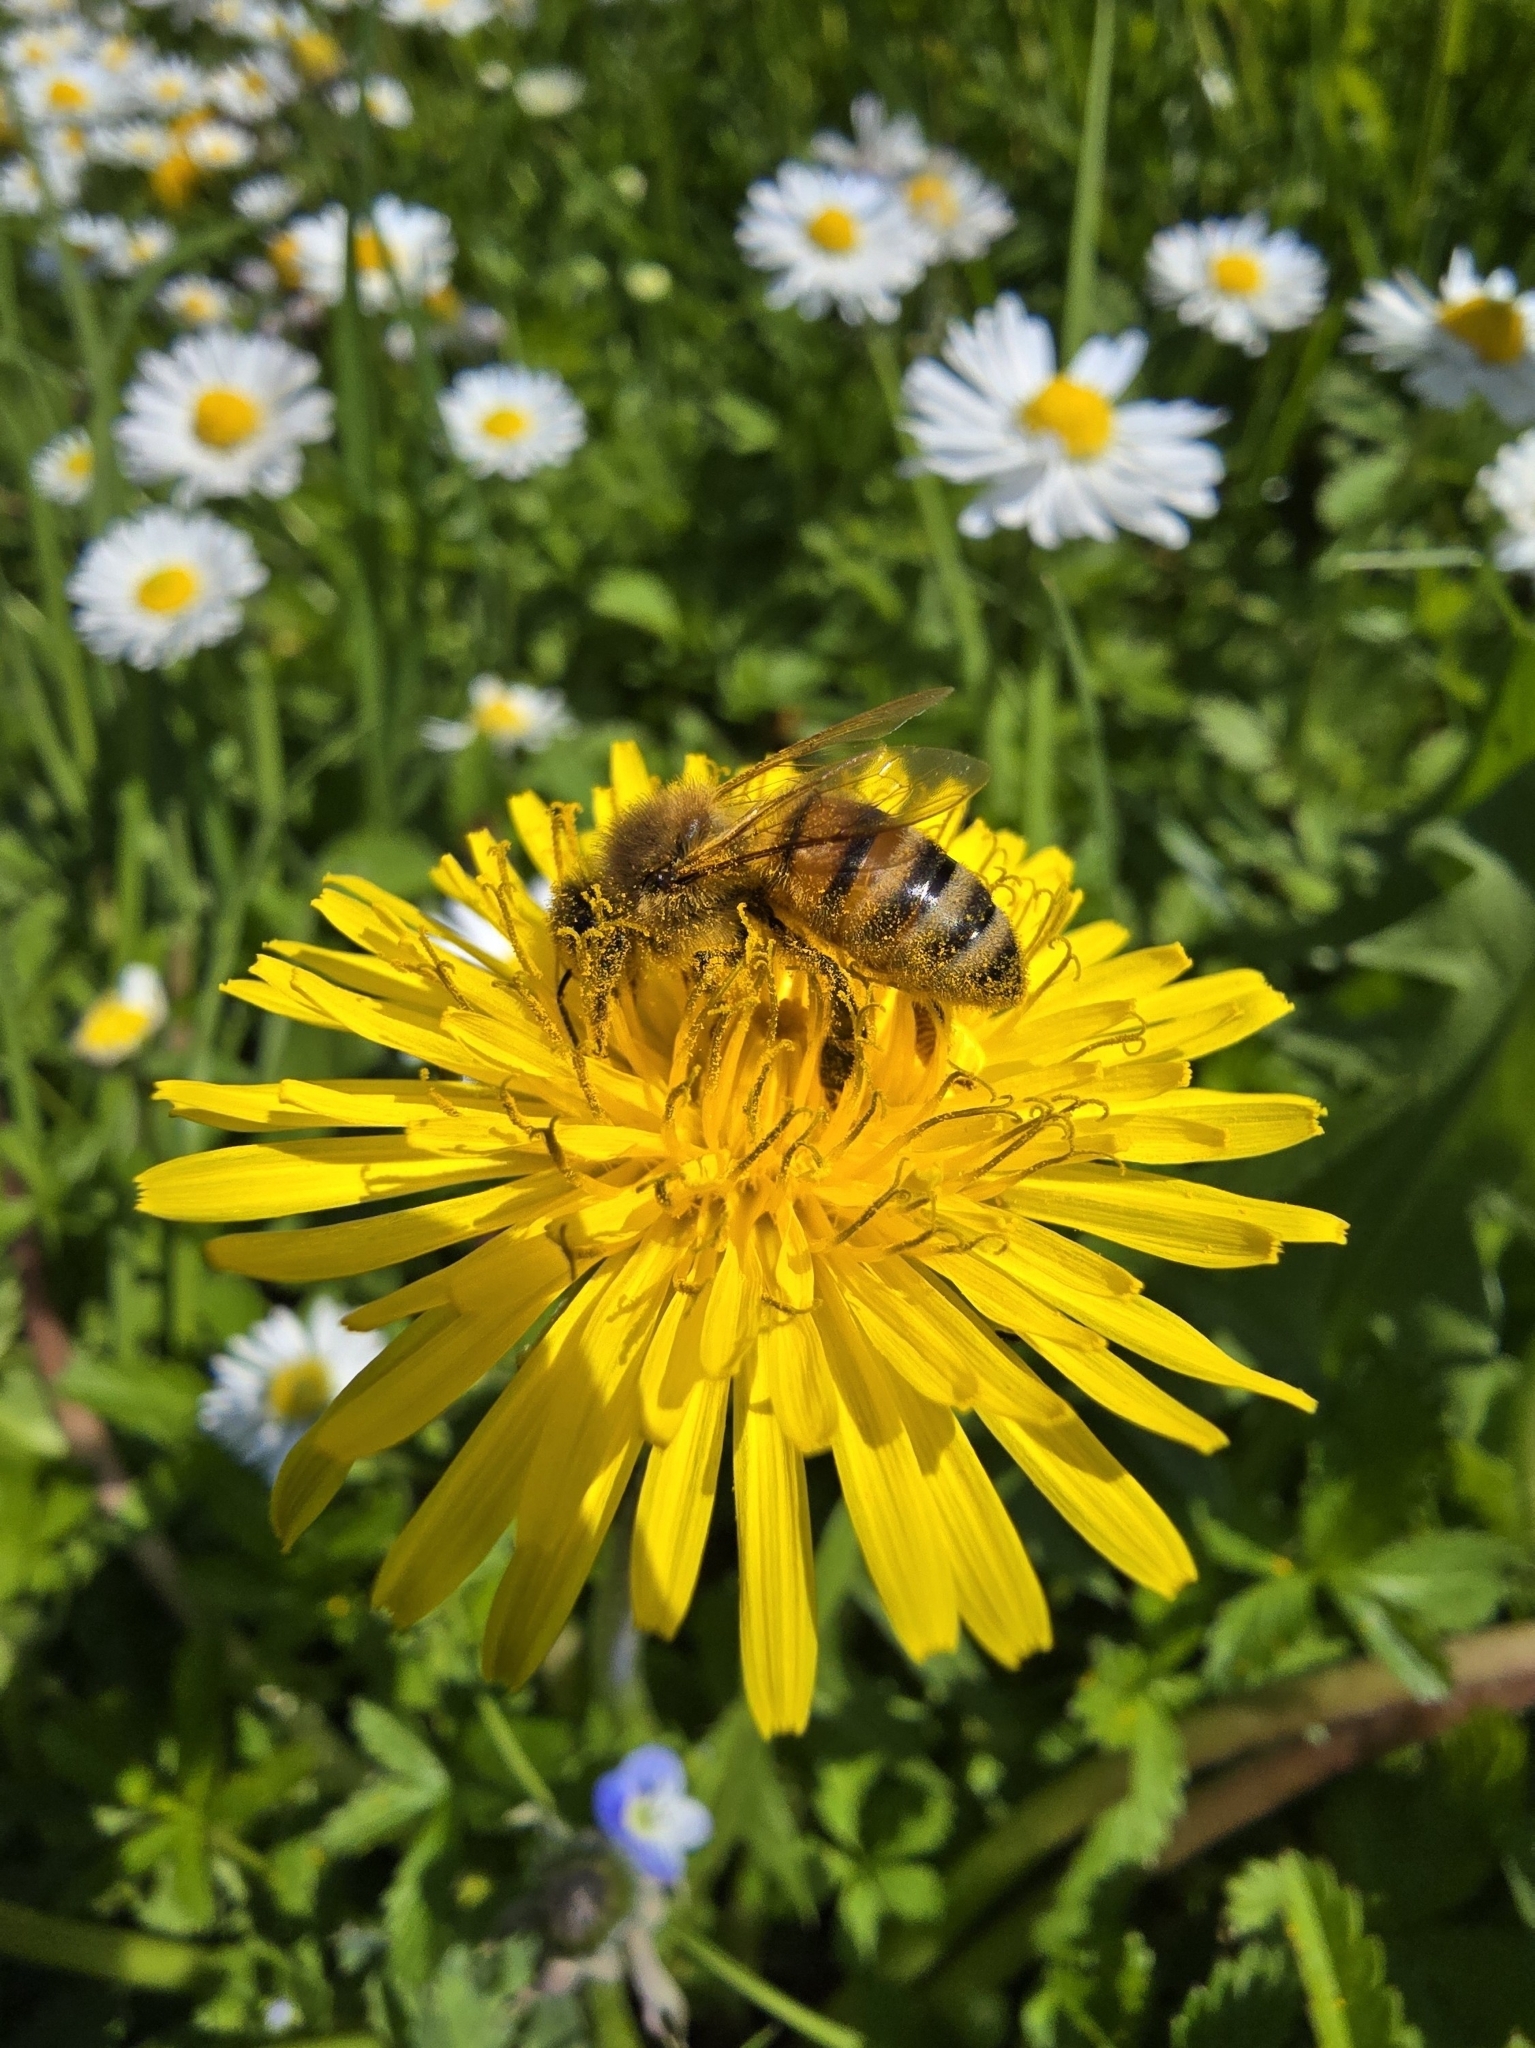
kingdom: Animalia
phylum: Arthropoda
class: Insecta
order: Hymenoptera
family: Apidae
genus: Apis
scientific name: Apis mellifera
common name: Honey bee
